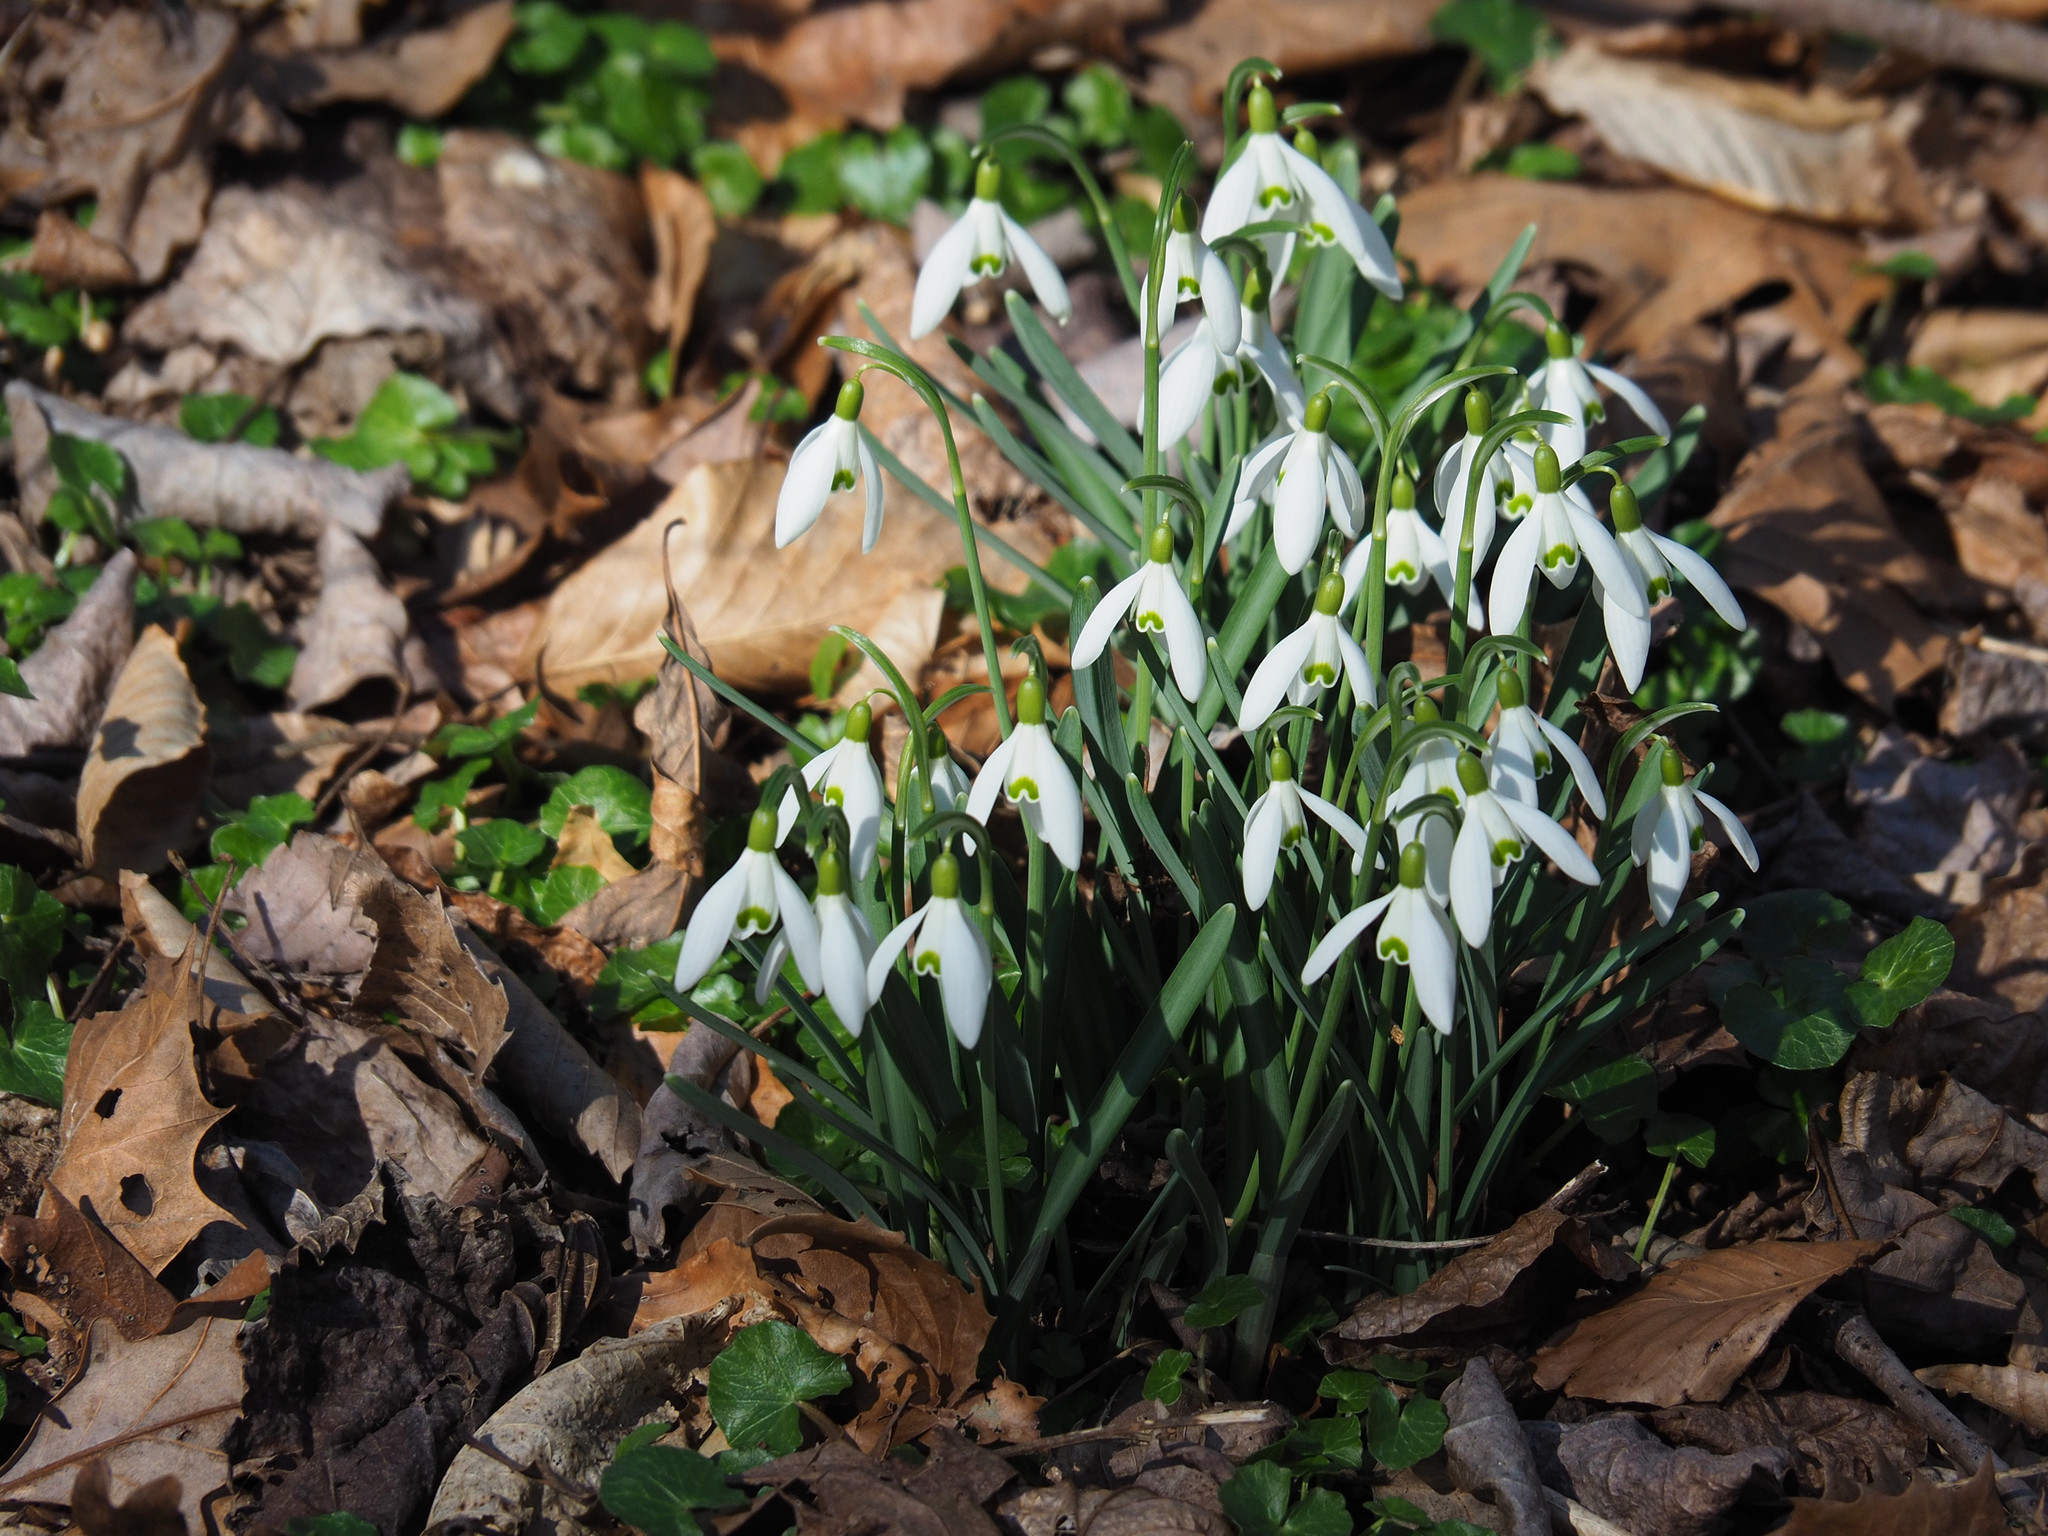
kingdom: Plantae
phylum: Tracheophyta
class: Liliopsida
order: Asparagales
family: Amaryllidaceae
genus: Galanthus
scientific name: Galanthus nivalis
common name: Snowdrop
